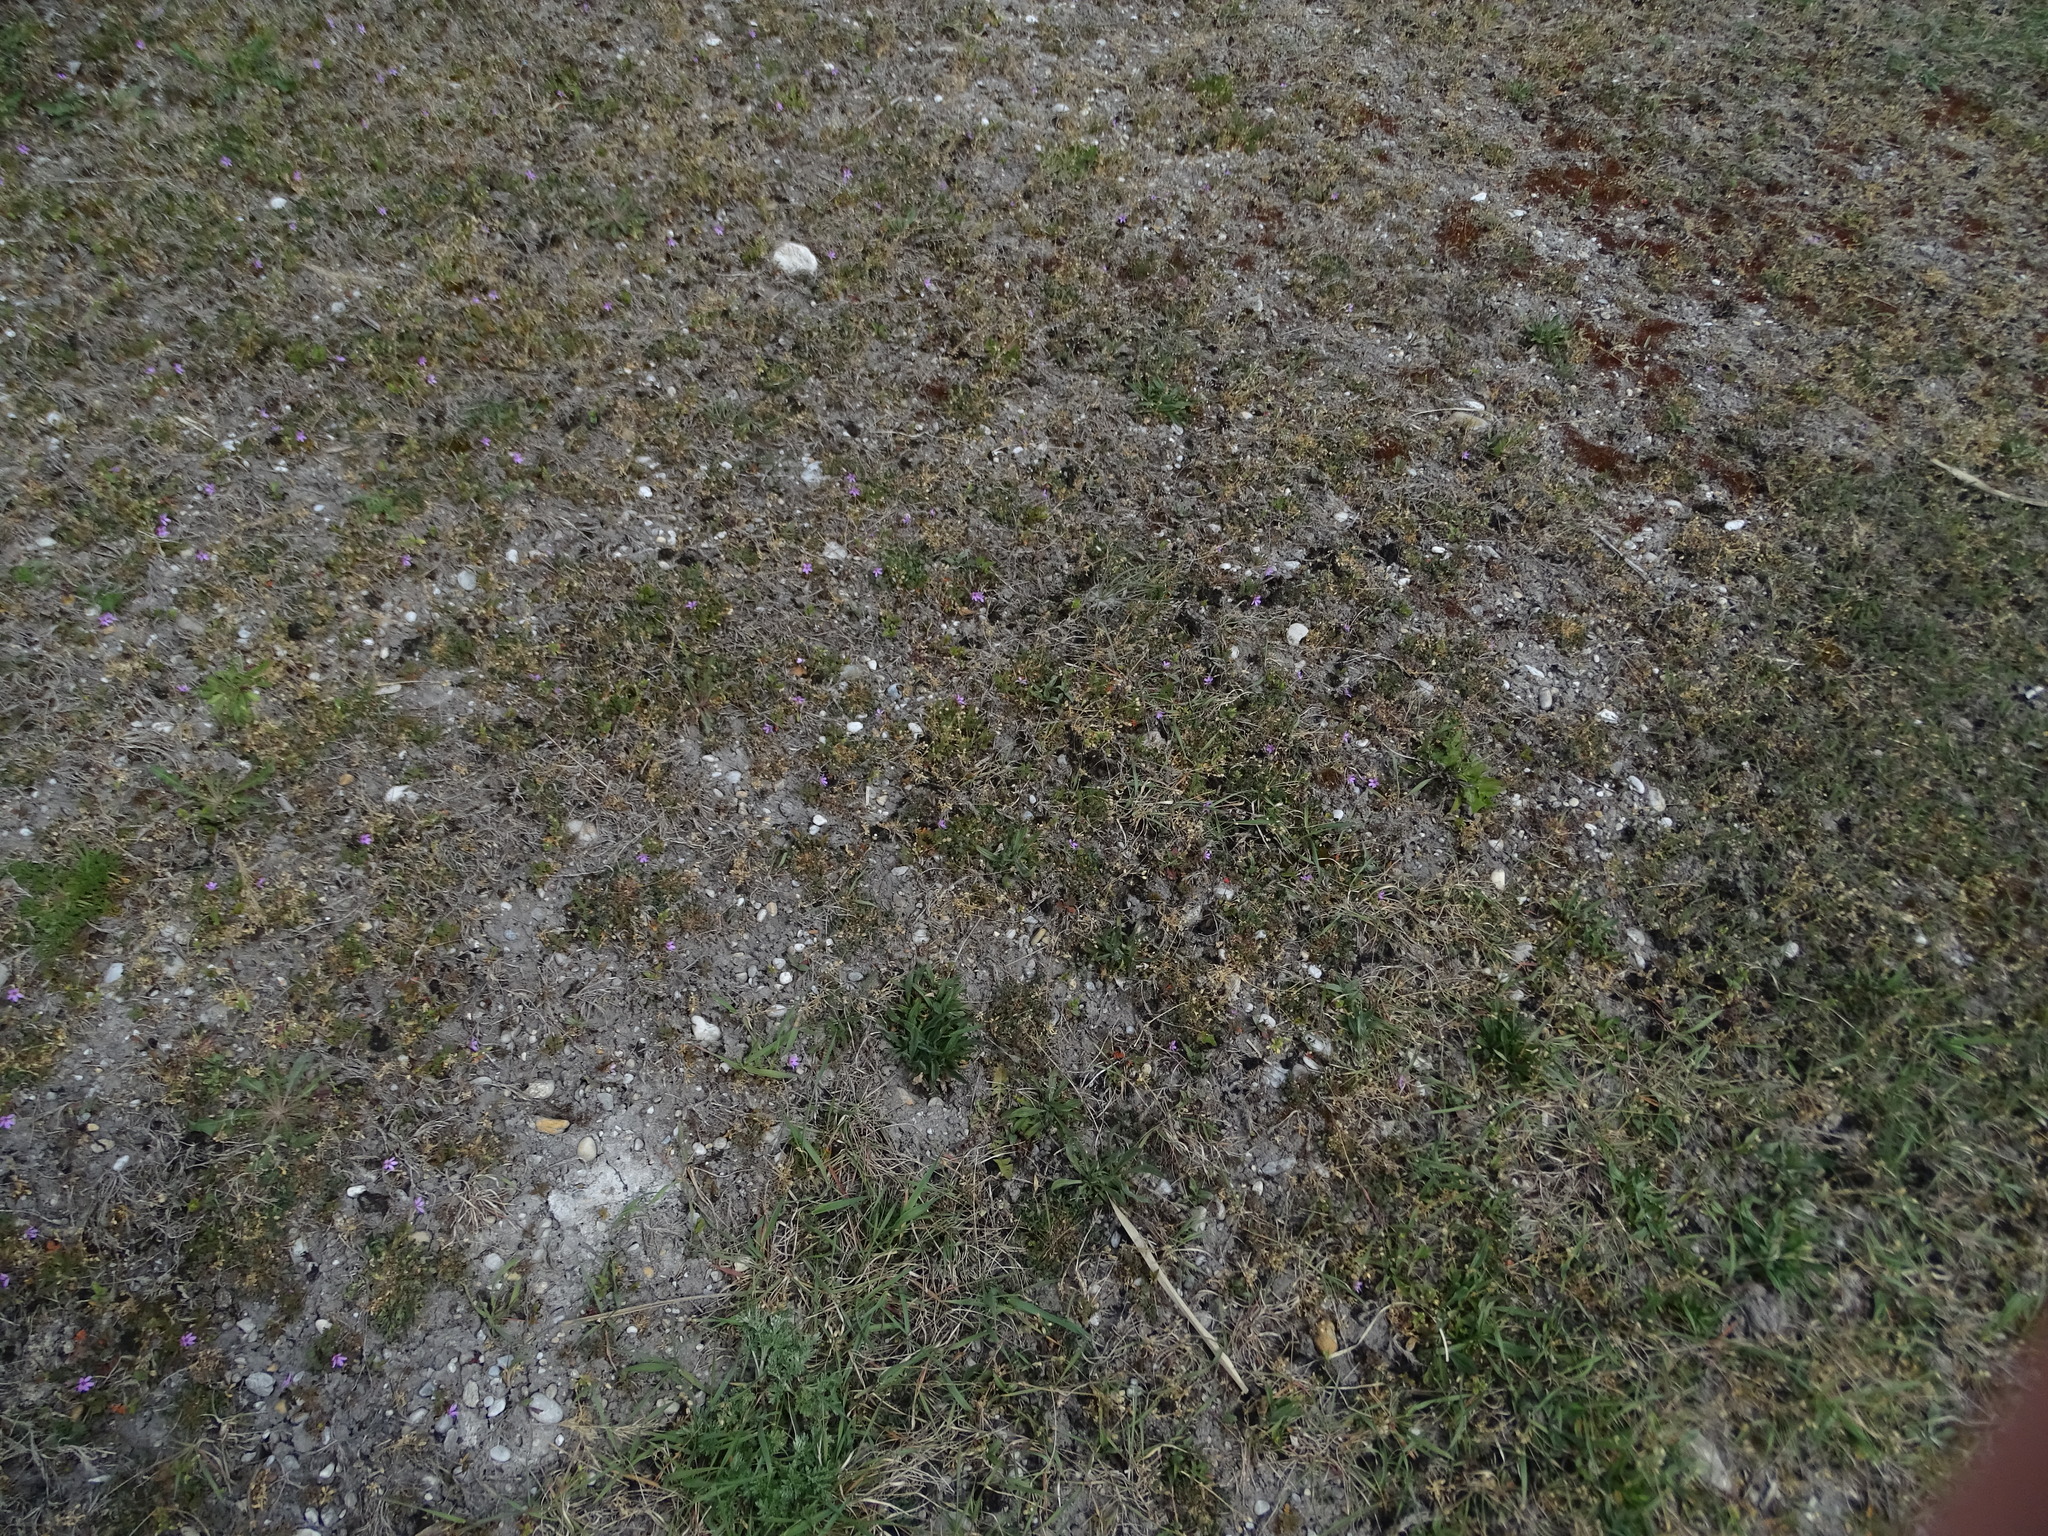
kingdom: Plantae
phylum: Tracheophyta
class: Magnoliopsida
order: Geraniales
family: Geraniaceae
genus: Erodium
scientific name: Erodium cicutarium
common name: Common stork's-bill
